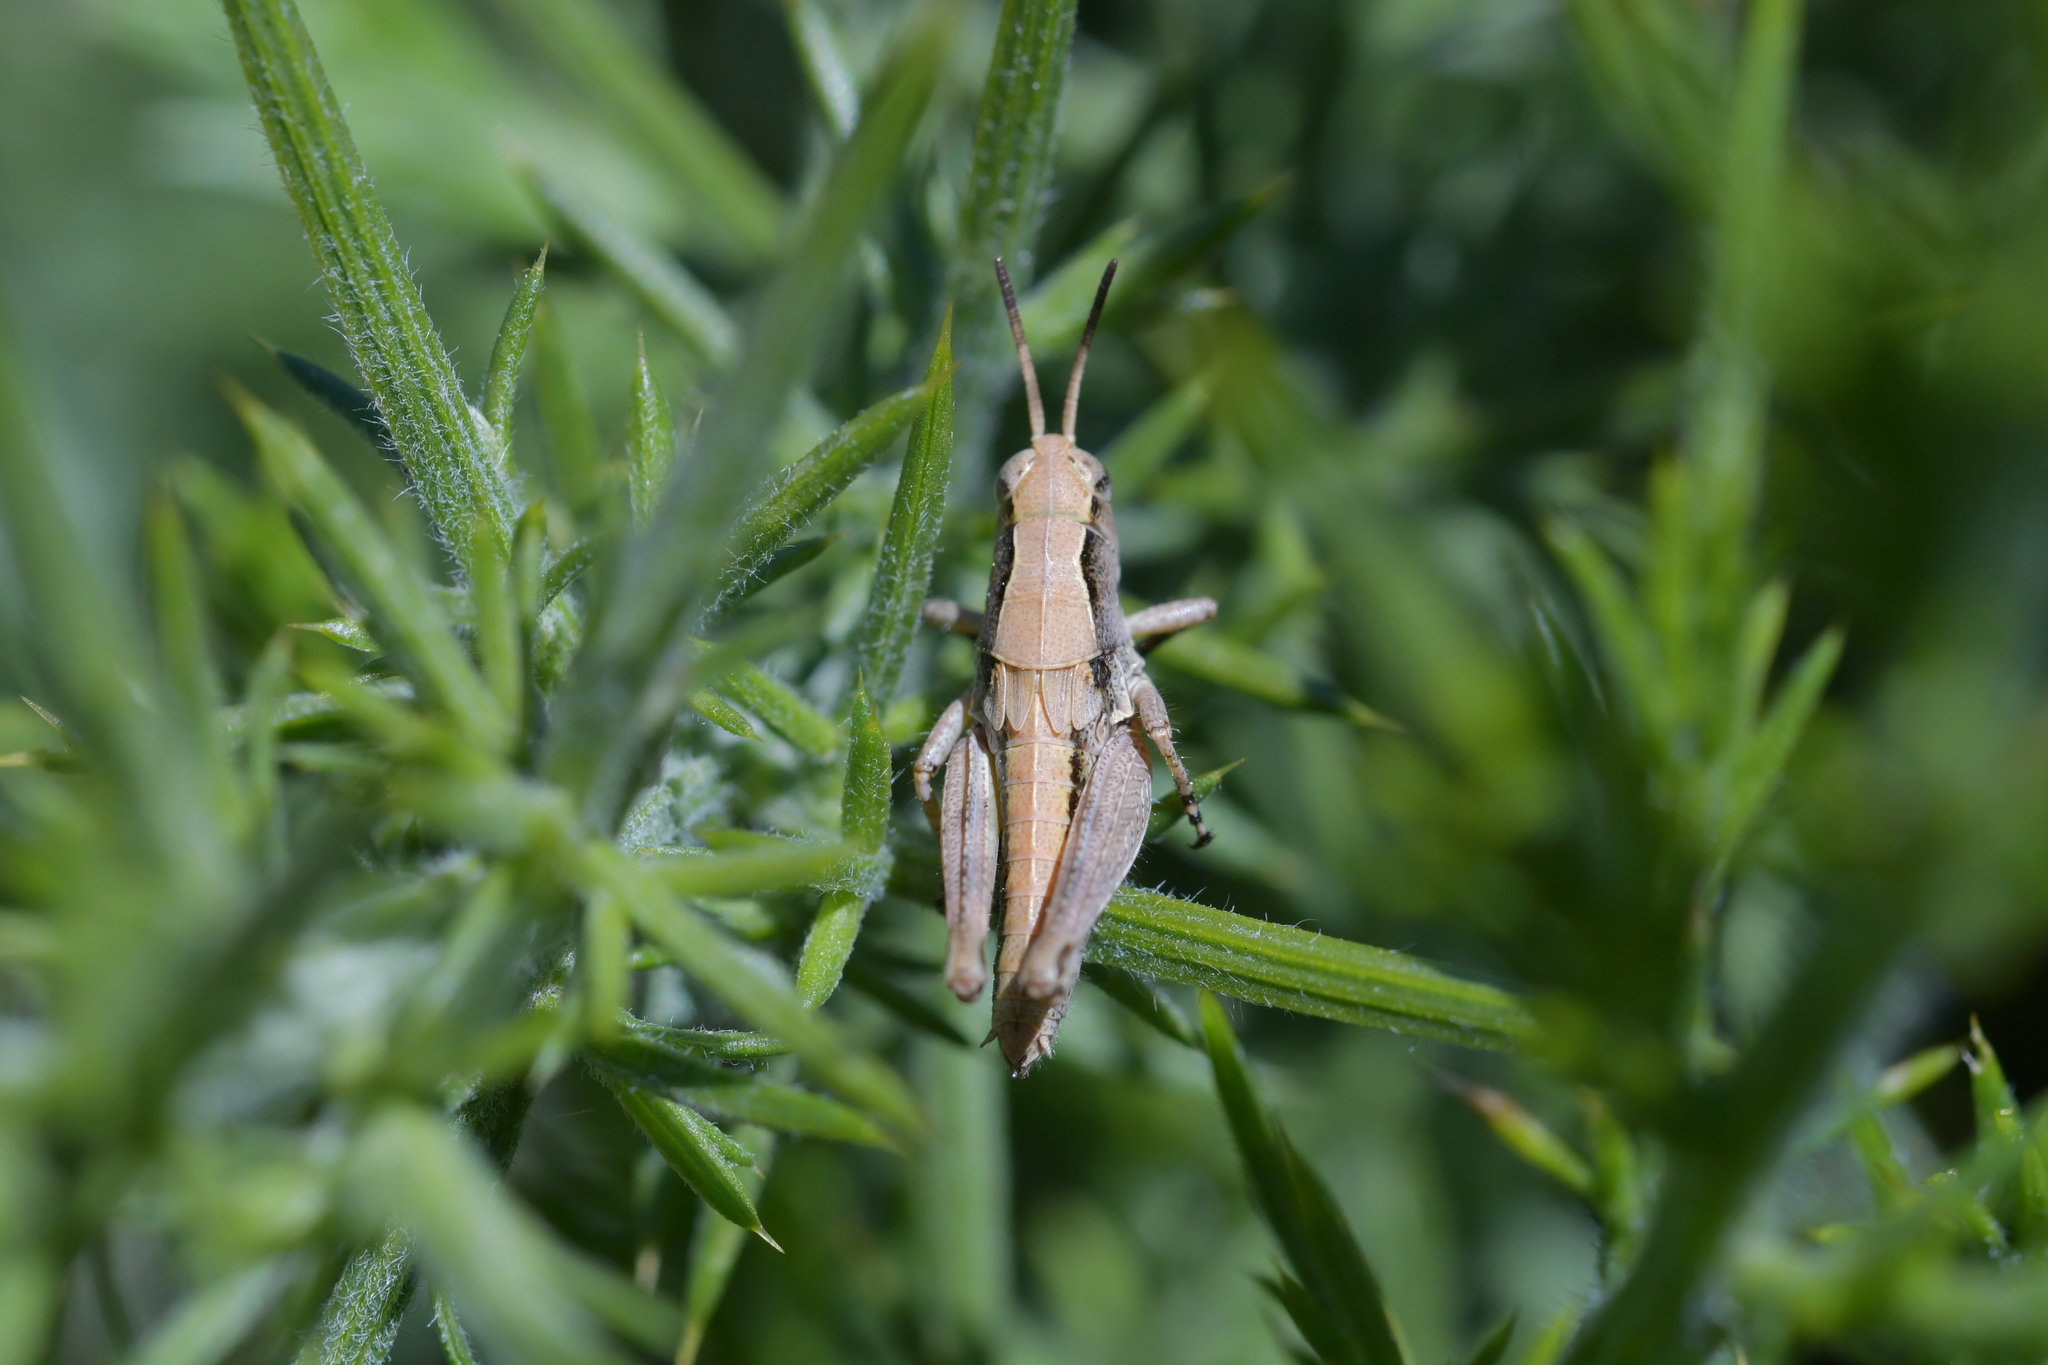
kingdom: Animalia
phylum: Arthropoda
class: Insecta
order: Orthoptera
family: Acrididae
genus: Phaulacridium
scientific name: Phaulacridium marginale
